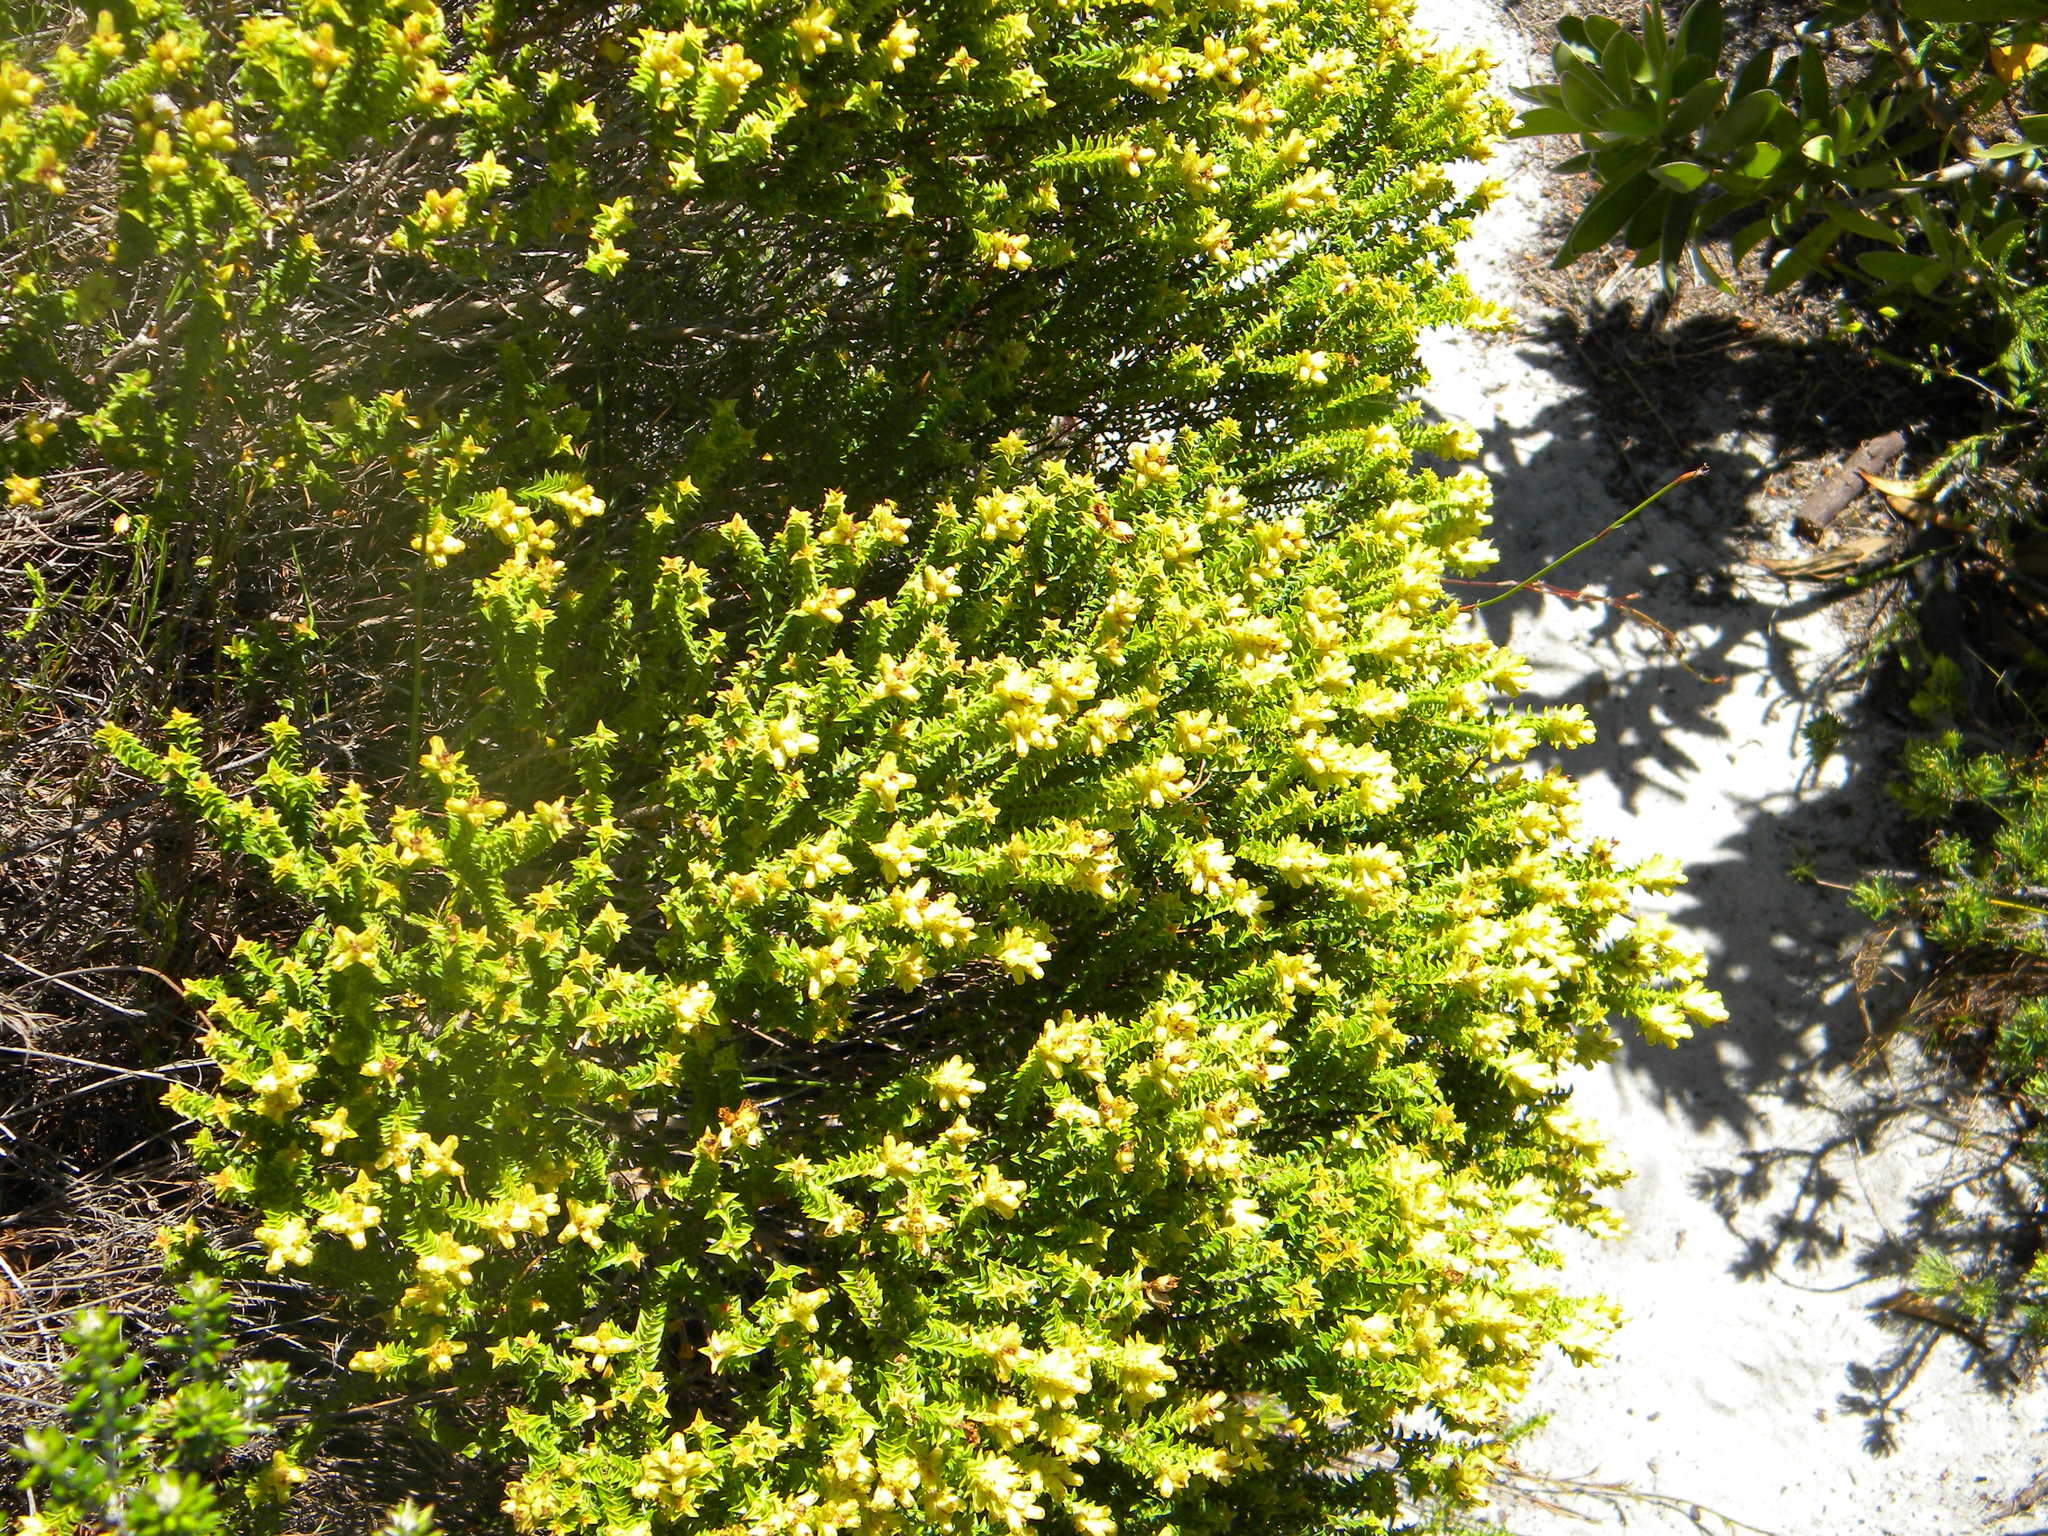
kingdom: Plantae
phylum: Tracheophyta
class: Magnoliopsida
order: Myrtales
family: Penaeaceae
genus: Penaea
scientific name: Penaea mucronata
